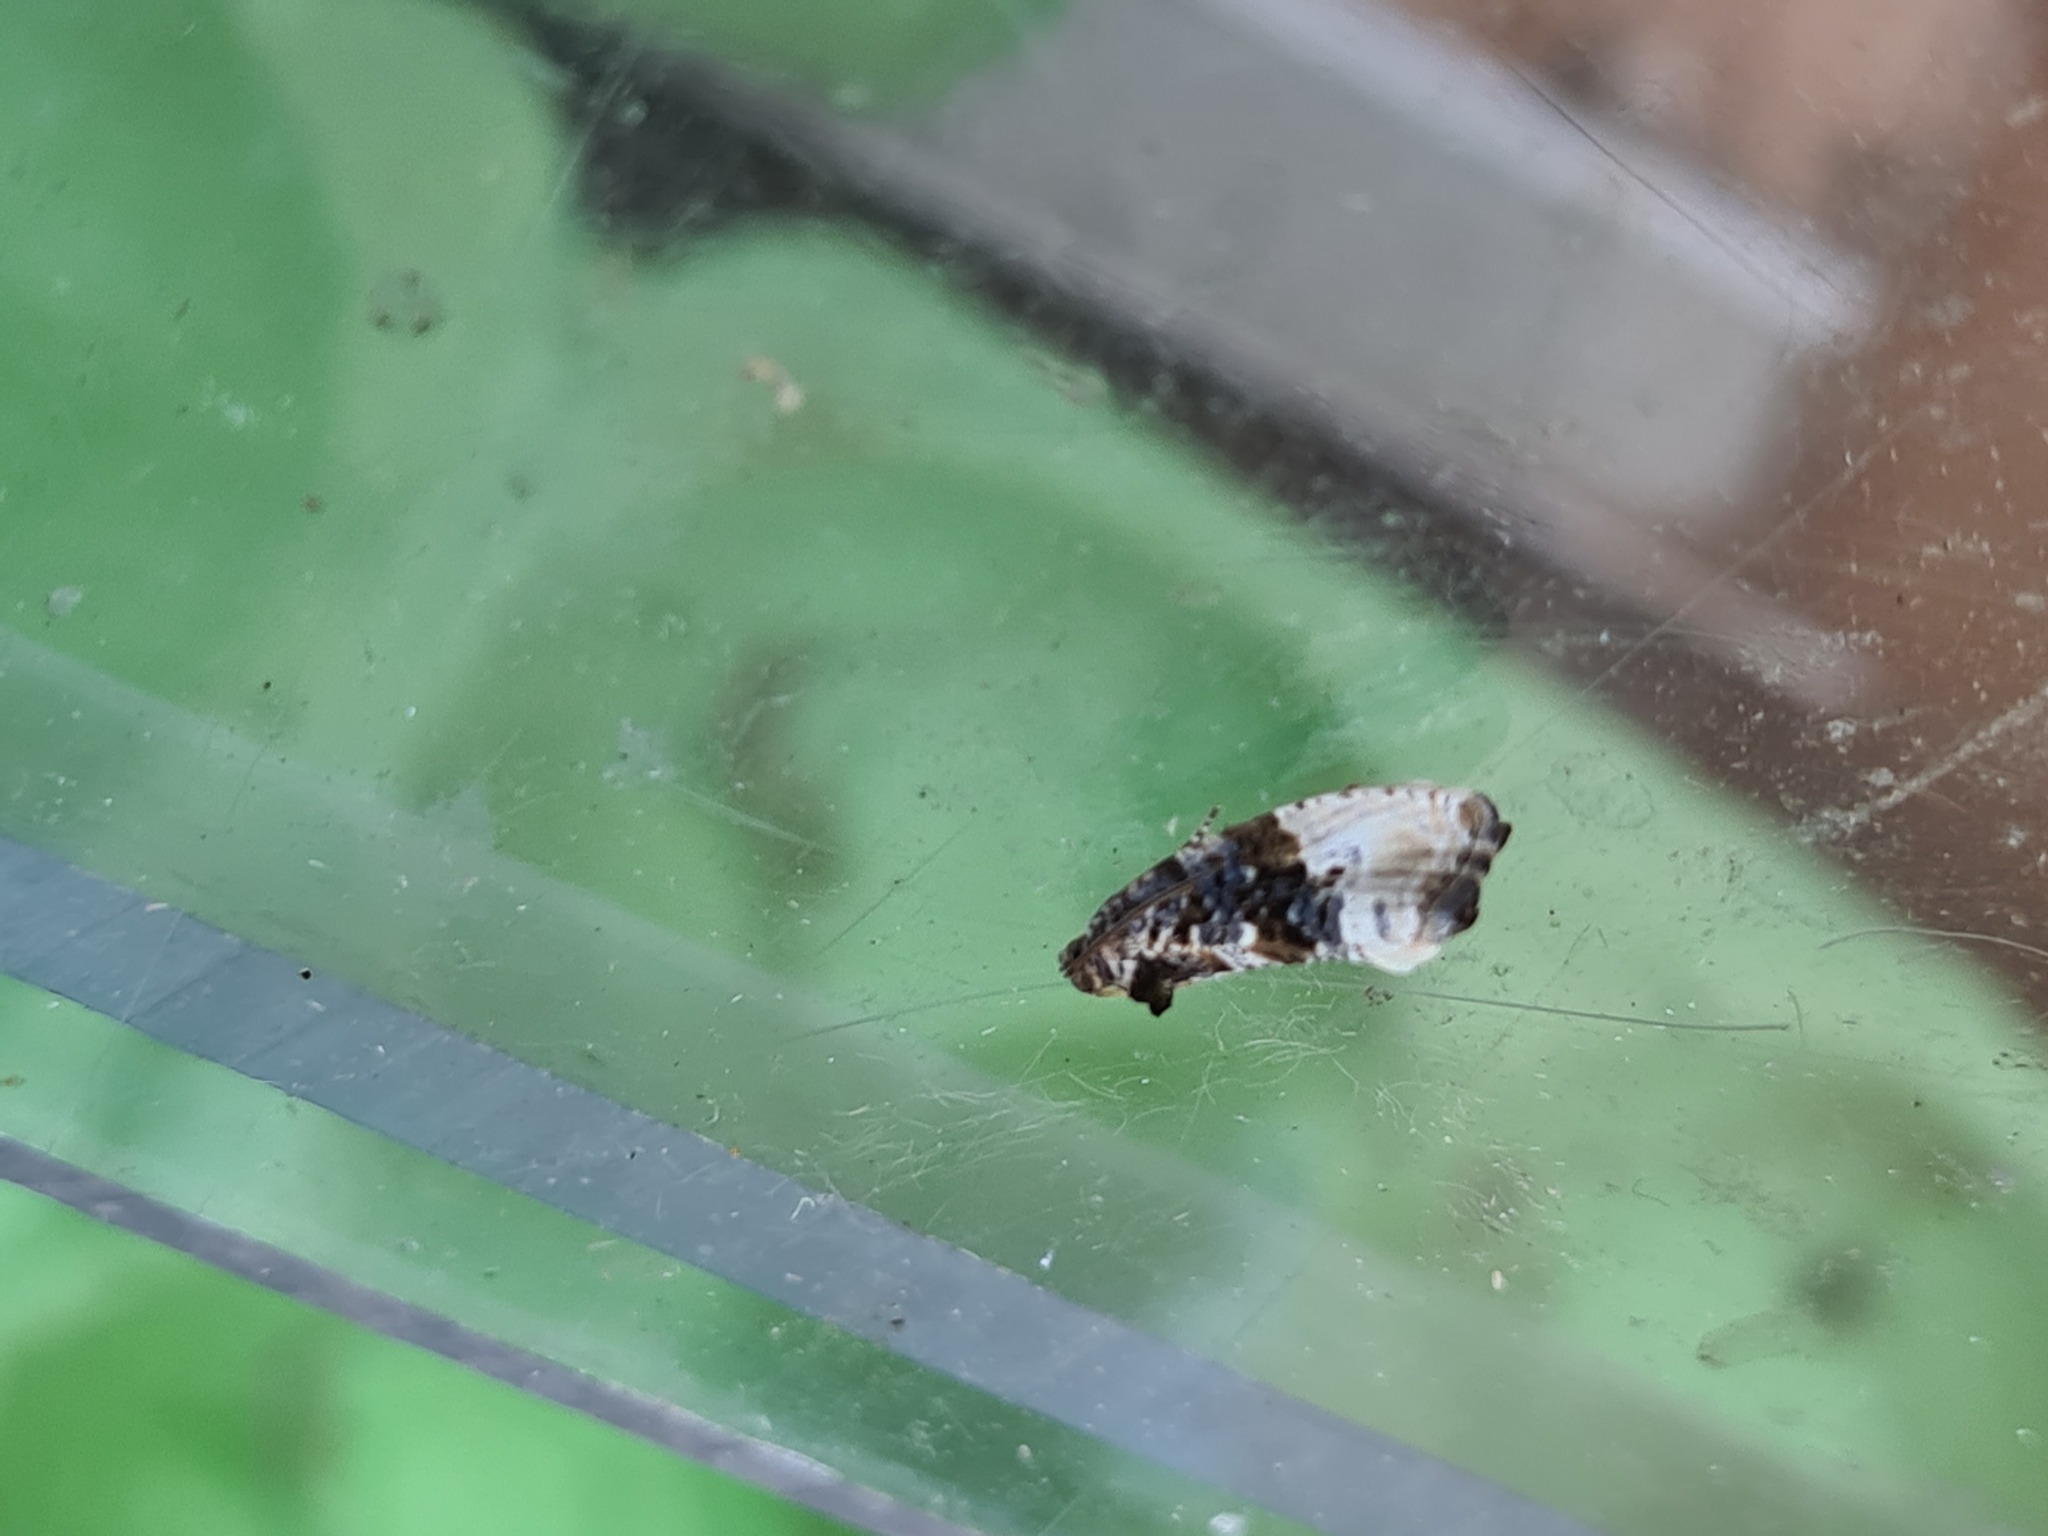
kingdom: Animalia
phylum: Arthropoda
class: Insecta
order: Lepidoptera
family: Tortricidae
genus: Hedya
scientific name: Hedya nubiferana
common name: Marbled orchard tortrix
